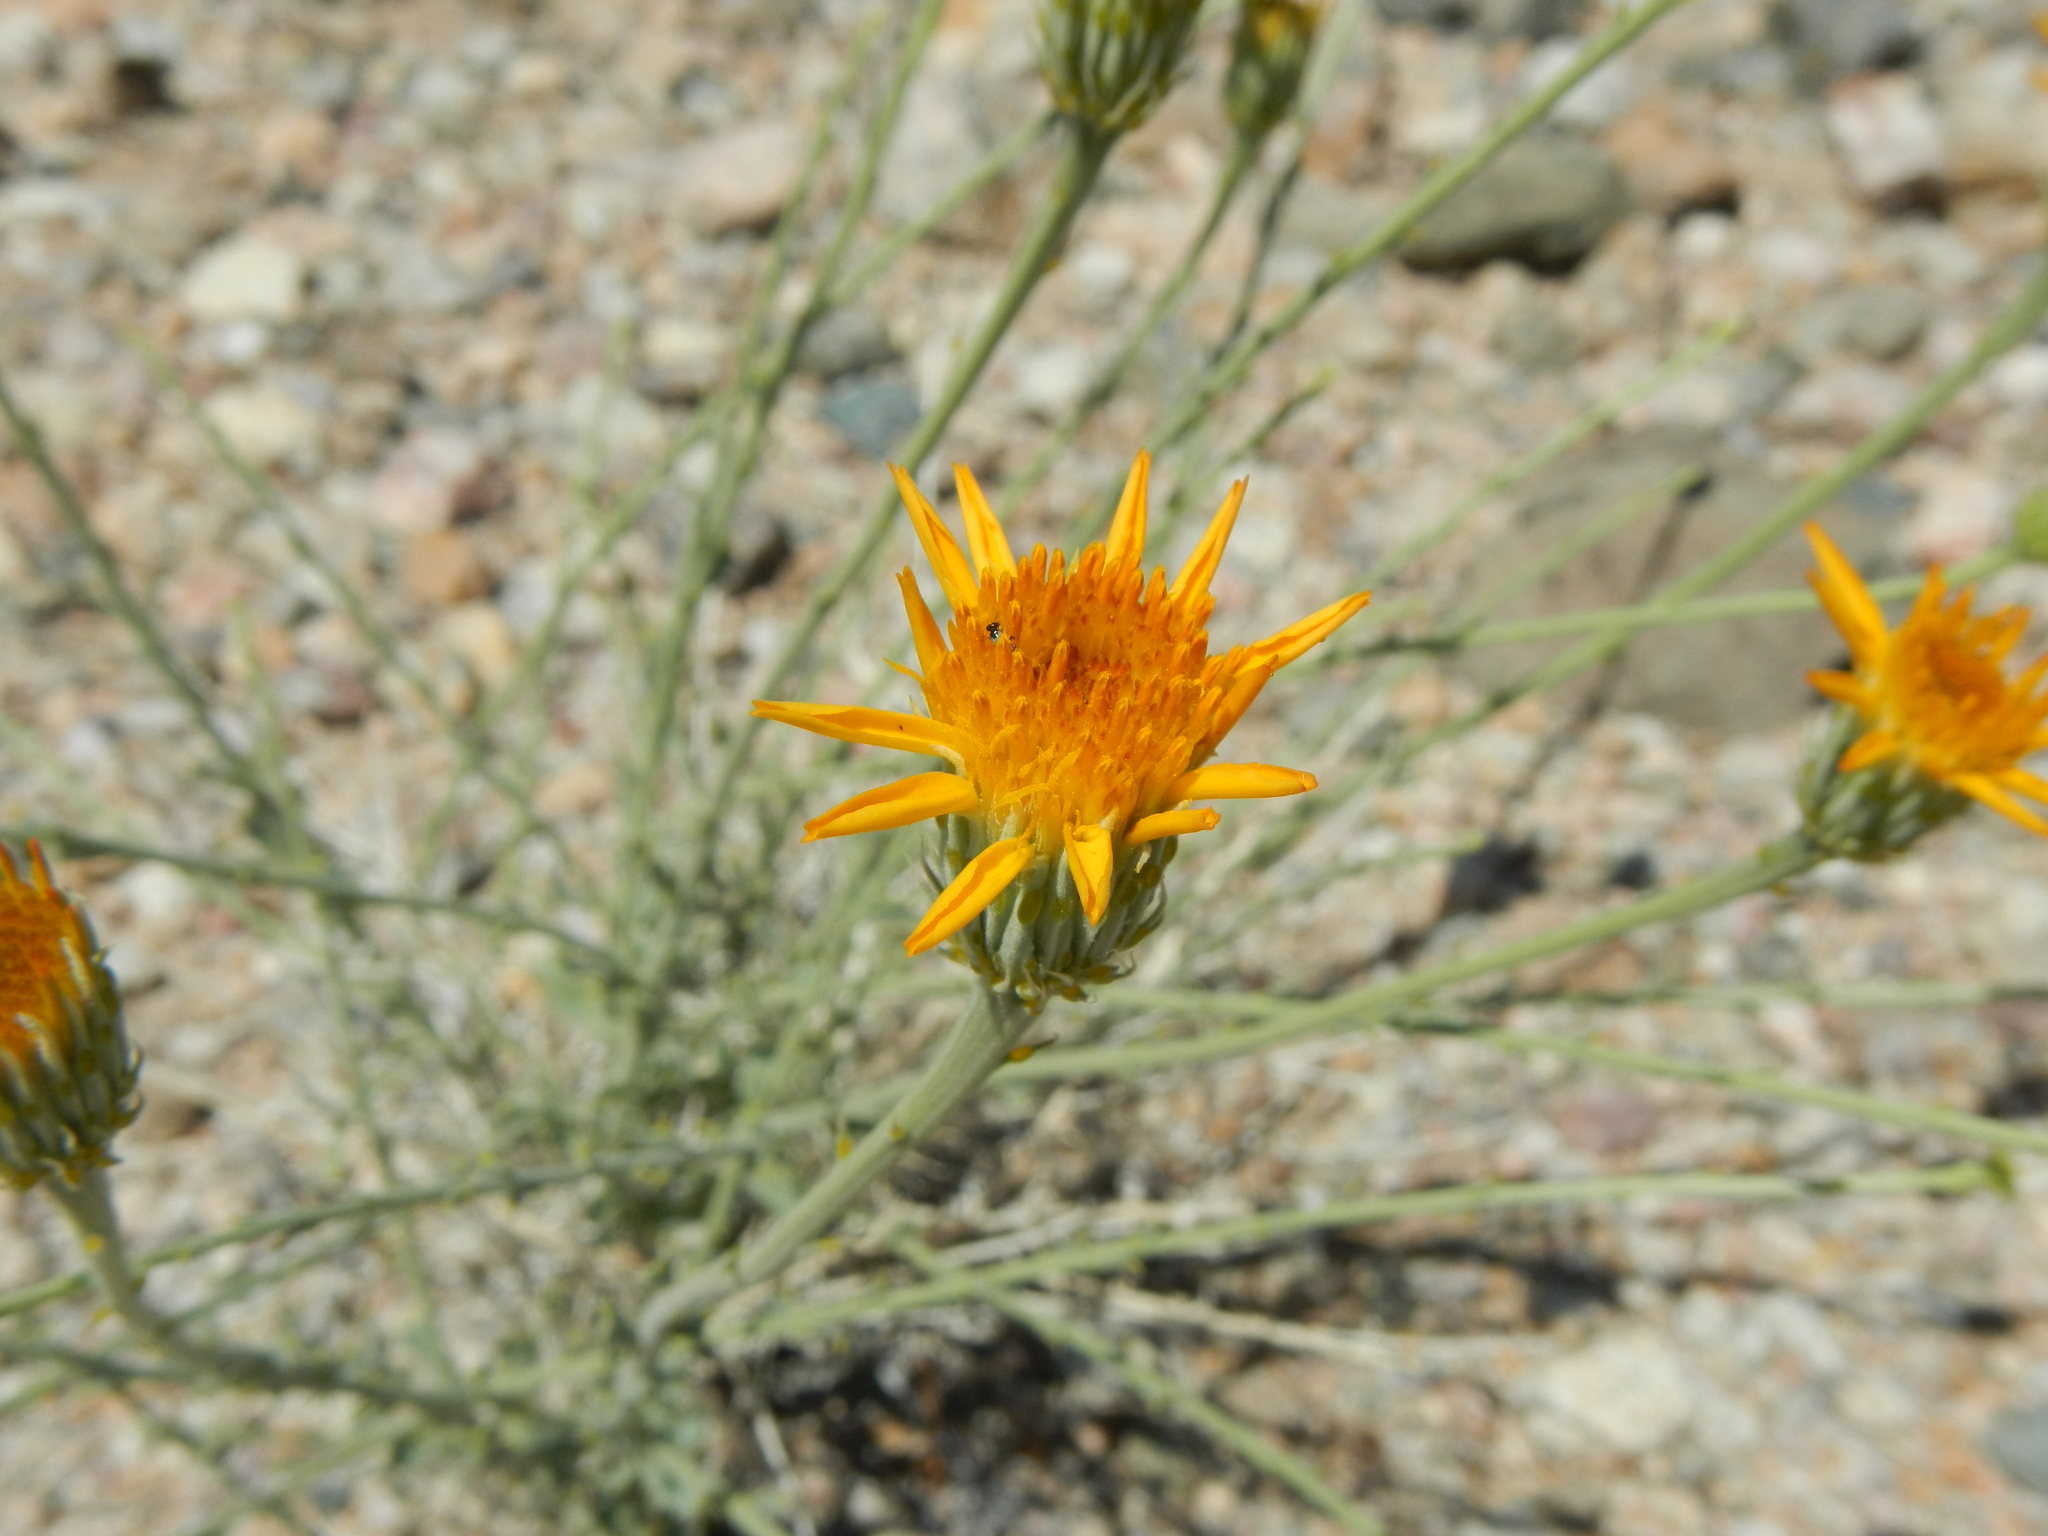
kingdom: Plantae
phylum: Tracheophyta
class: Magnoliopsida
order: Asterales
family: Asteraceae
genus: Adenophyllum
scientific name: Adenophyllum cooperi
